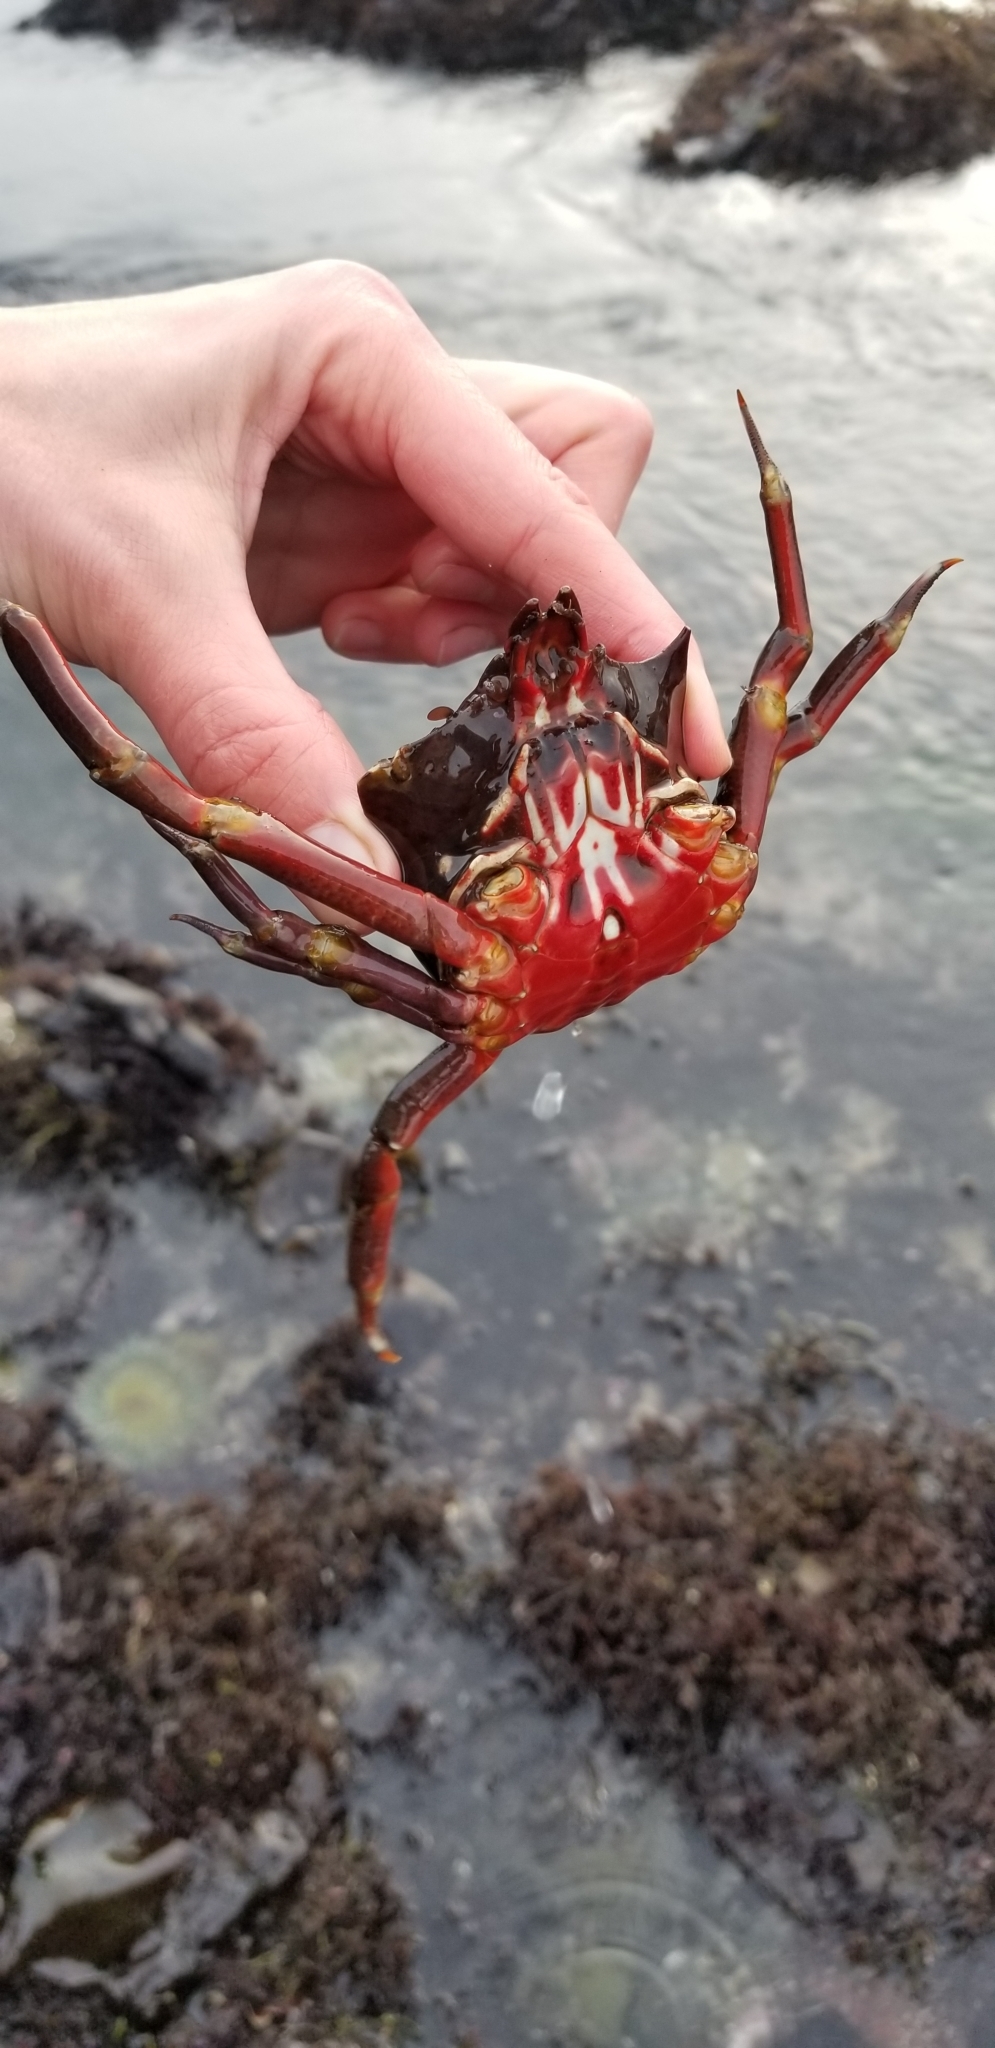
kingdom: Animalia
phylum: Arthropoda
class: Malacostraca
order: Decapoda
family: Epialtidae
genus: Pugettia
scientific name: Pugettia producta
